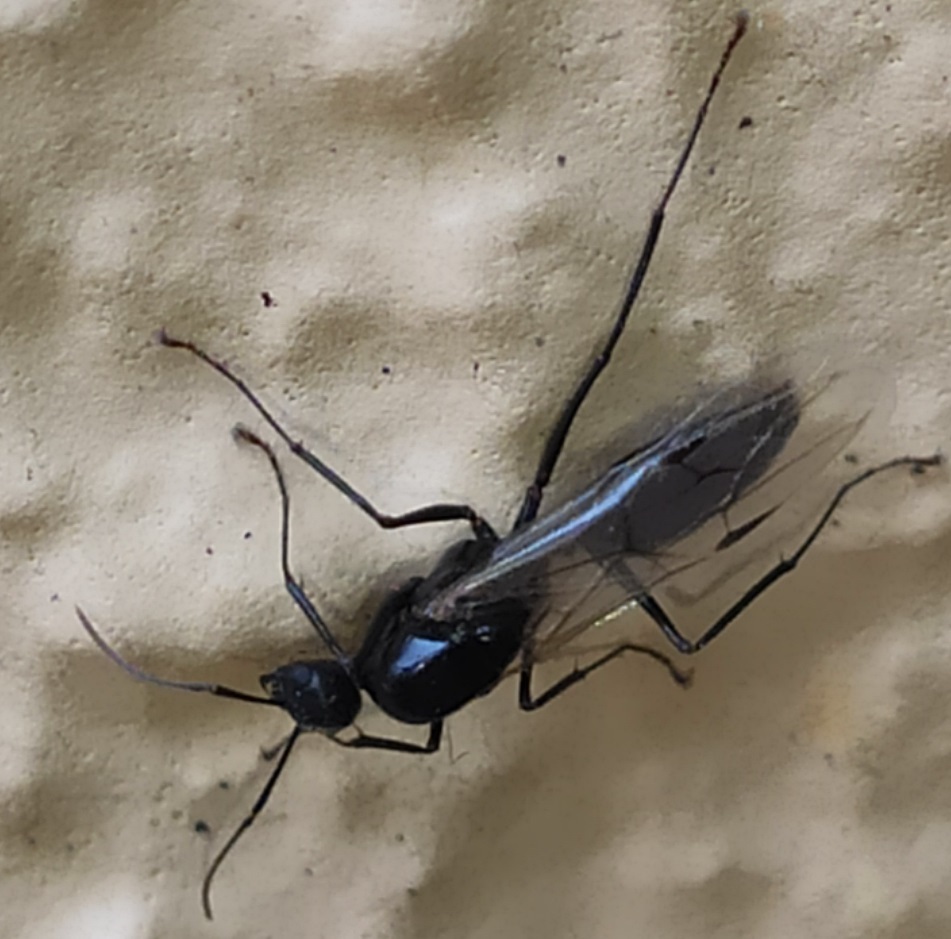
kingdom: Animalia
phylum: Arthropoda
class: Insecta
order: Hymenoptera
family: Formicidae
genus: Camponotus
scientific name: Camponotus
